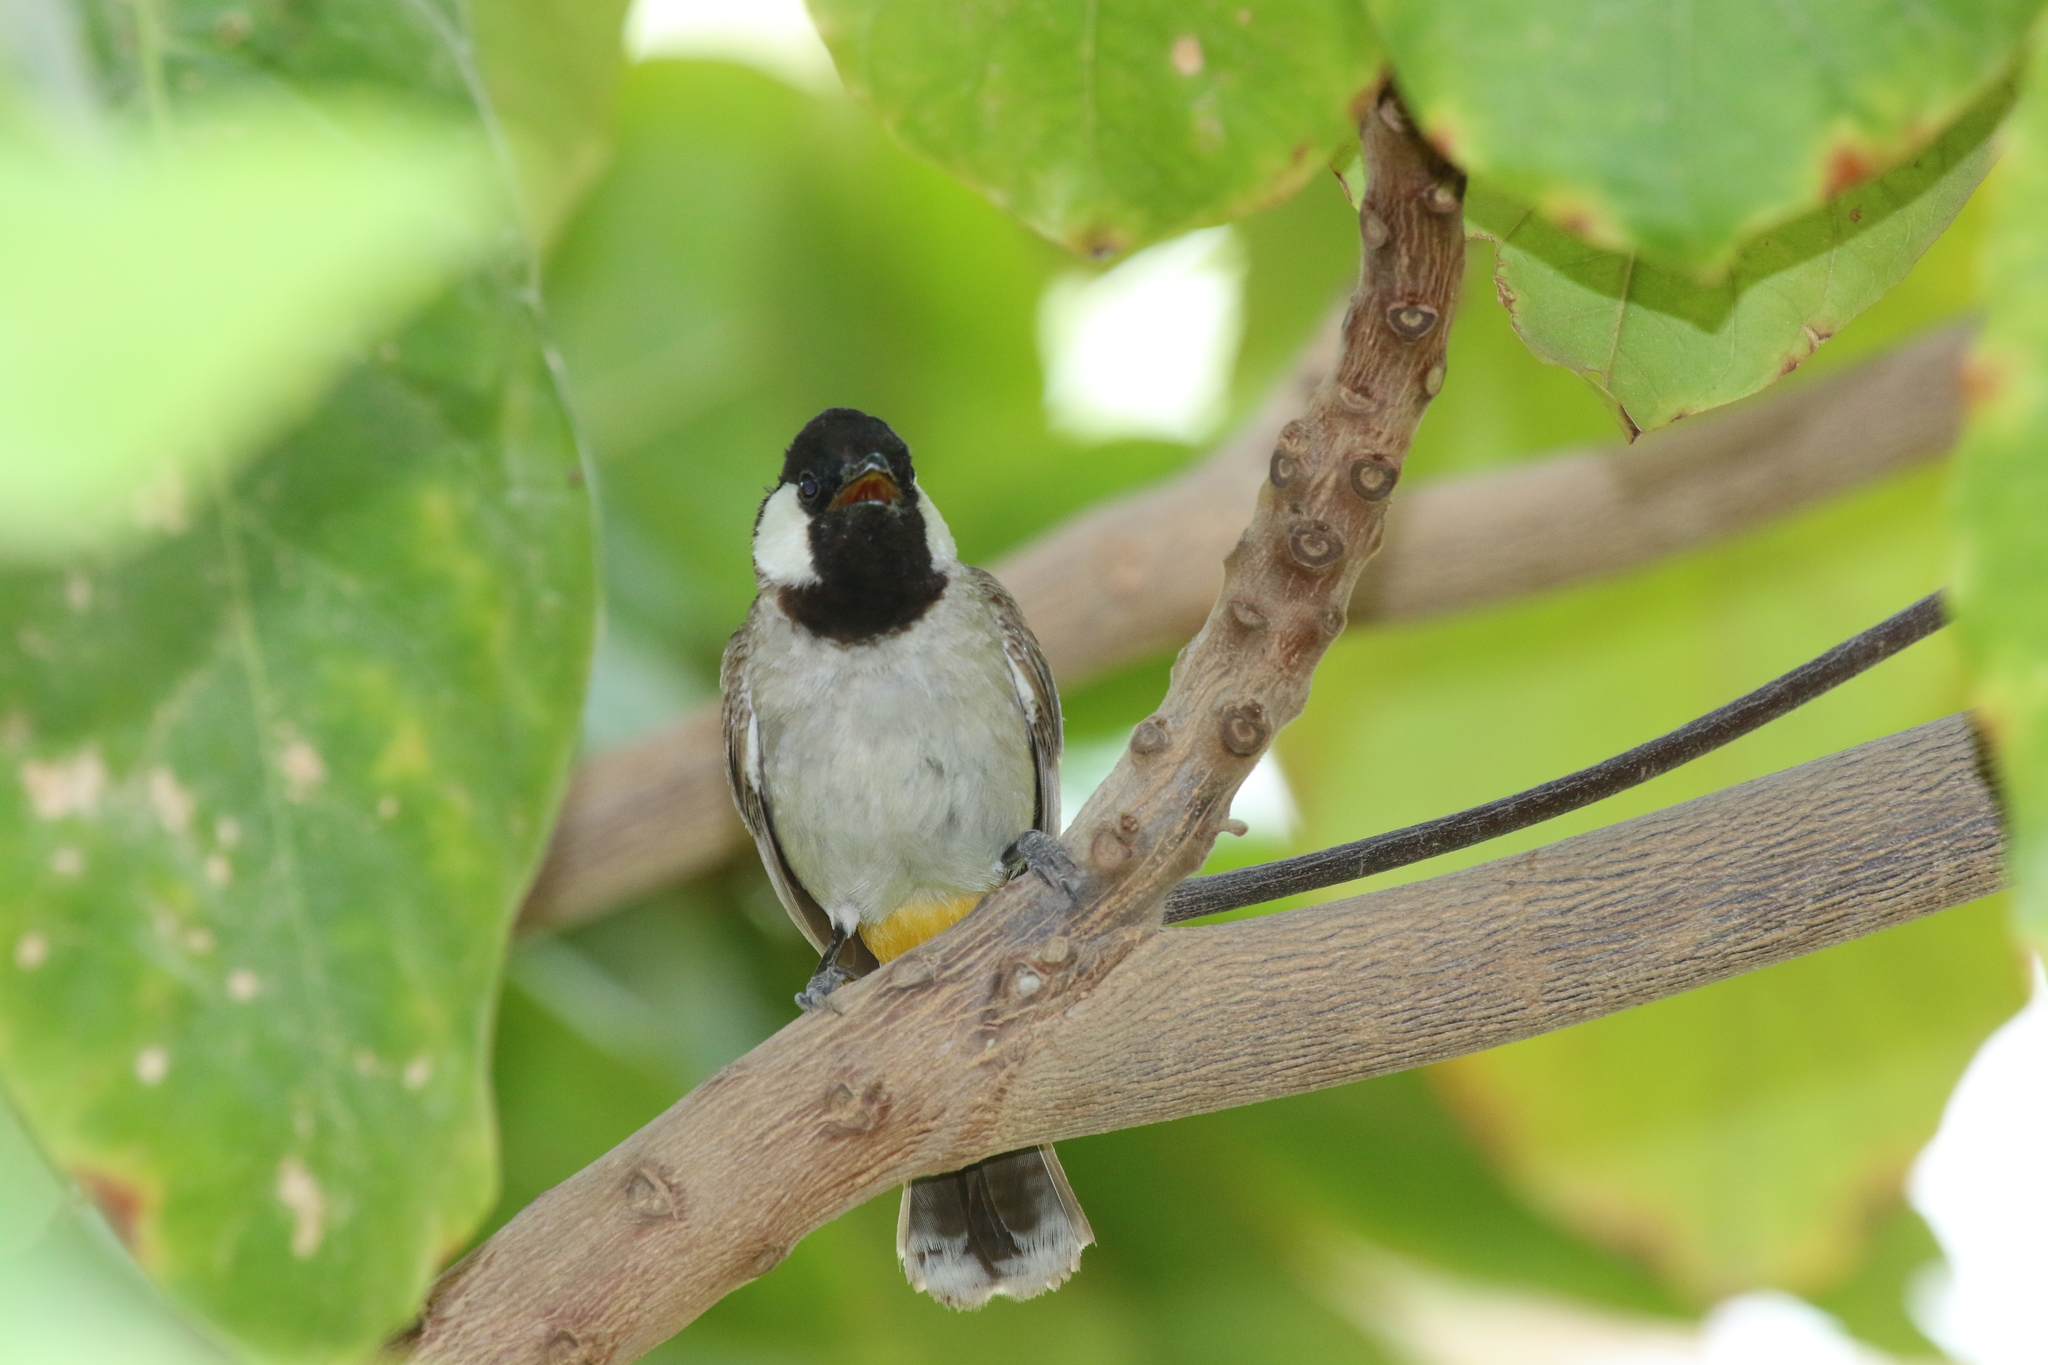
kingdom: Animalia
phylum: Chordata
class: Aves
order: Passeriformes
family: Pycnonotidae
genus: Pycnonotus
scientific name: Pycnonotus leucotis
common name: White-eared bulbul
